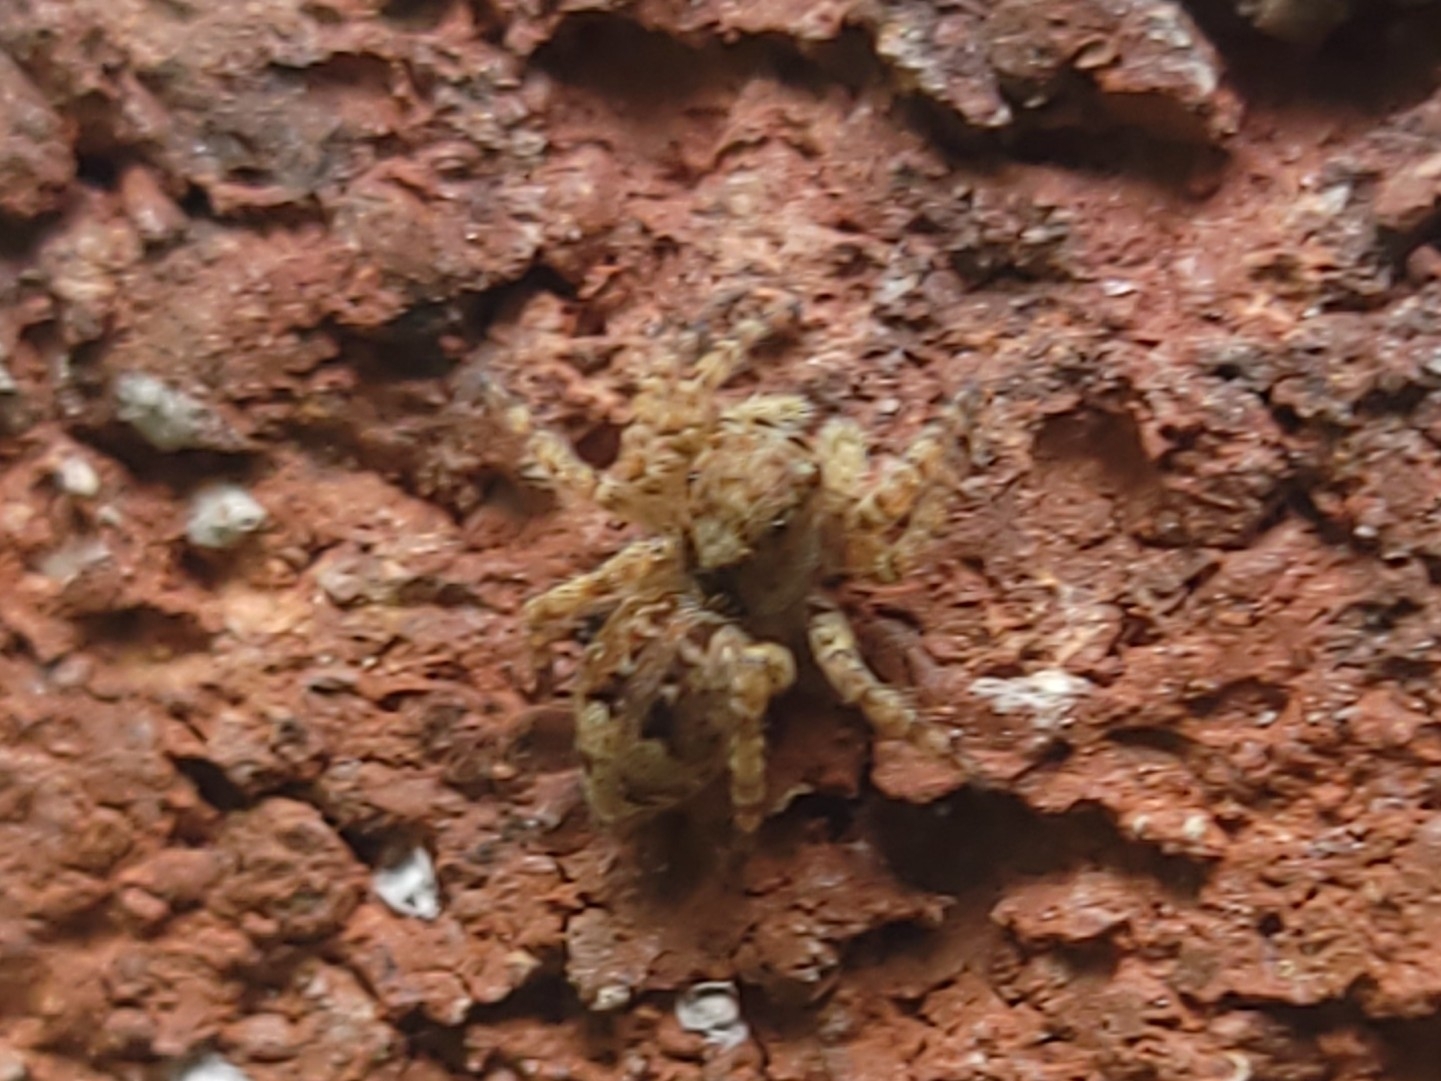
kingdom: Animalia
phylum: Arthropoda
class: Arachnida
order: Araneae
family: Salticidae
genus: Attulus
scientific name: Attulus fasciger
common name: Asiatic wall jumping spider
